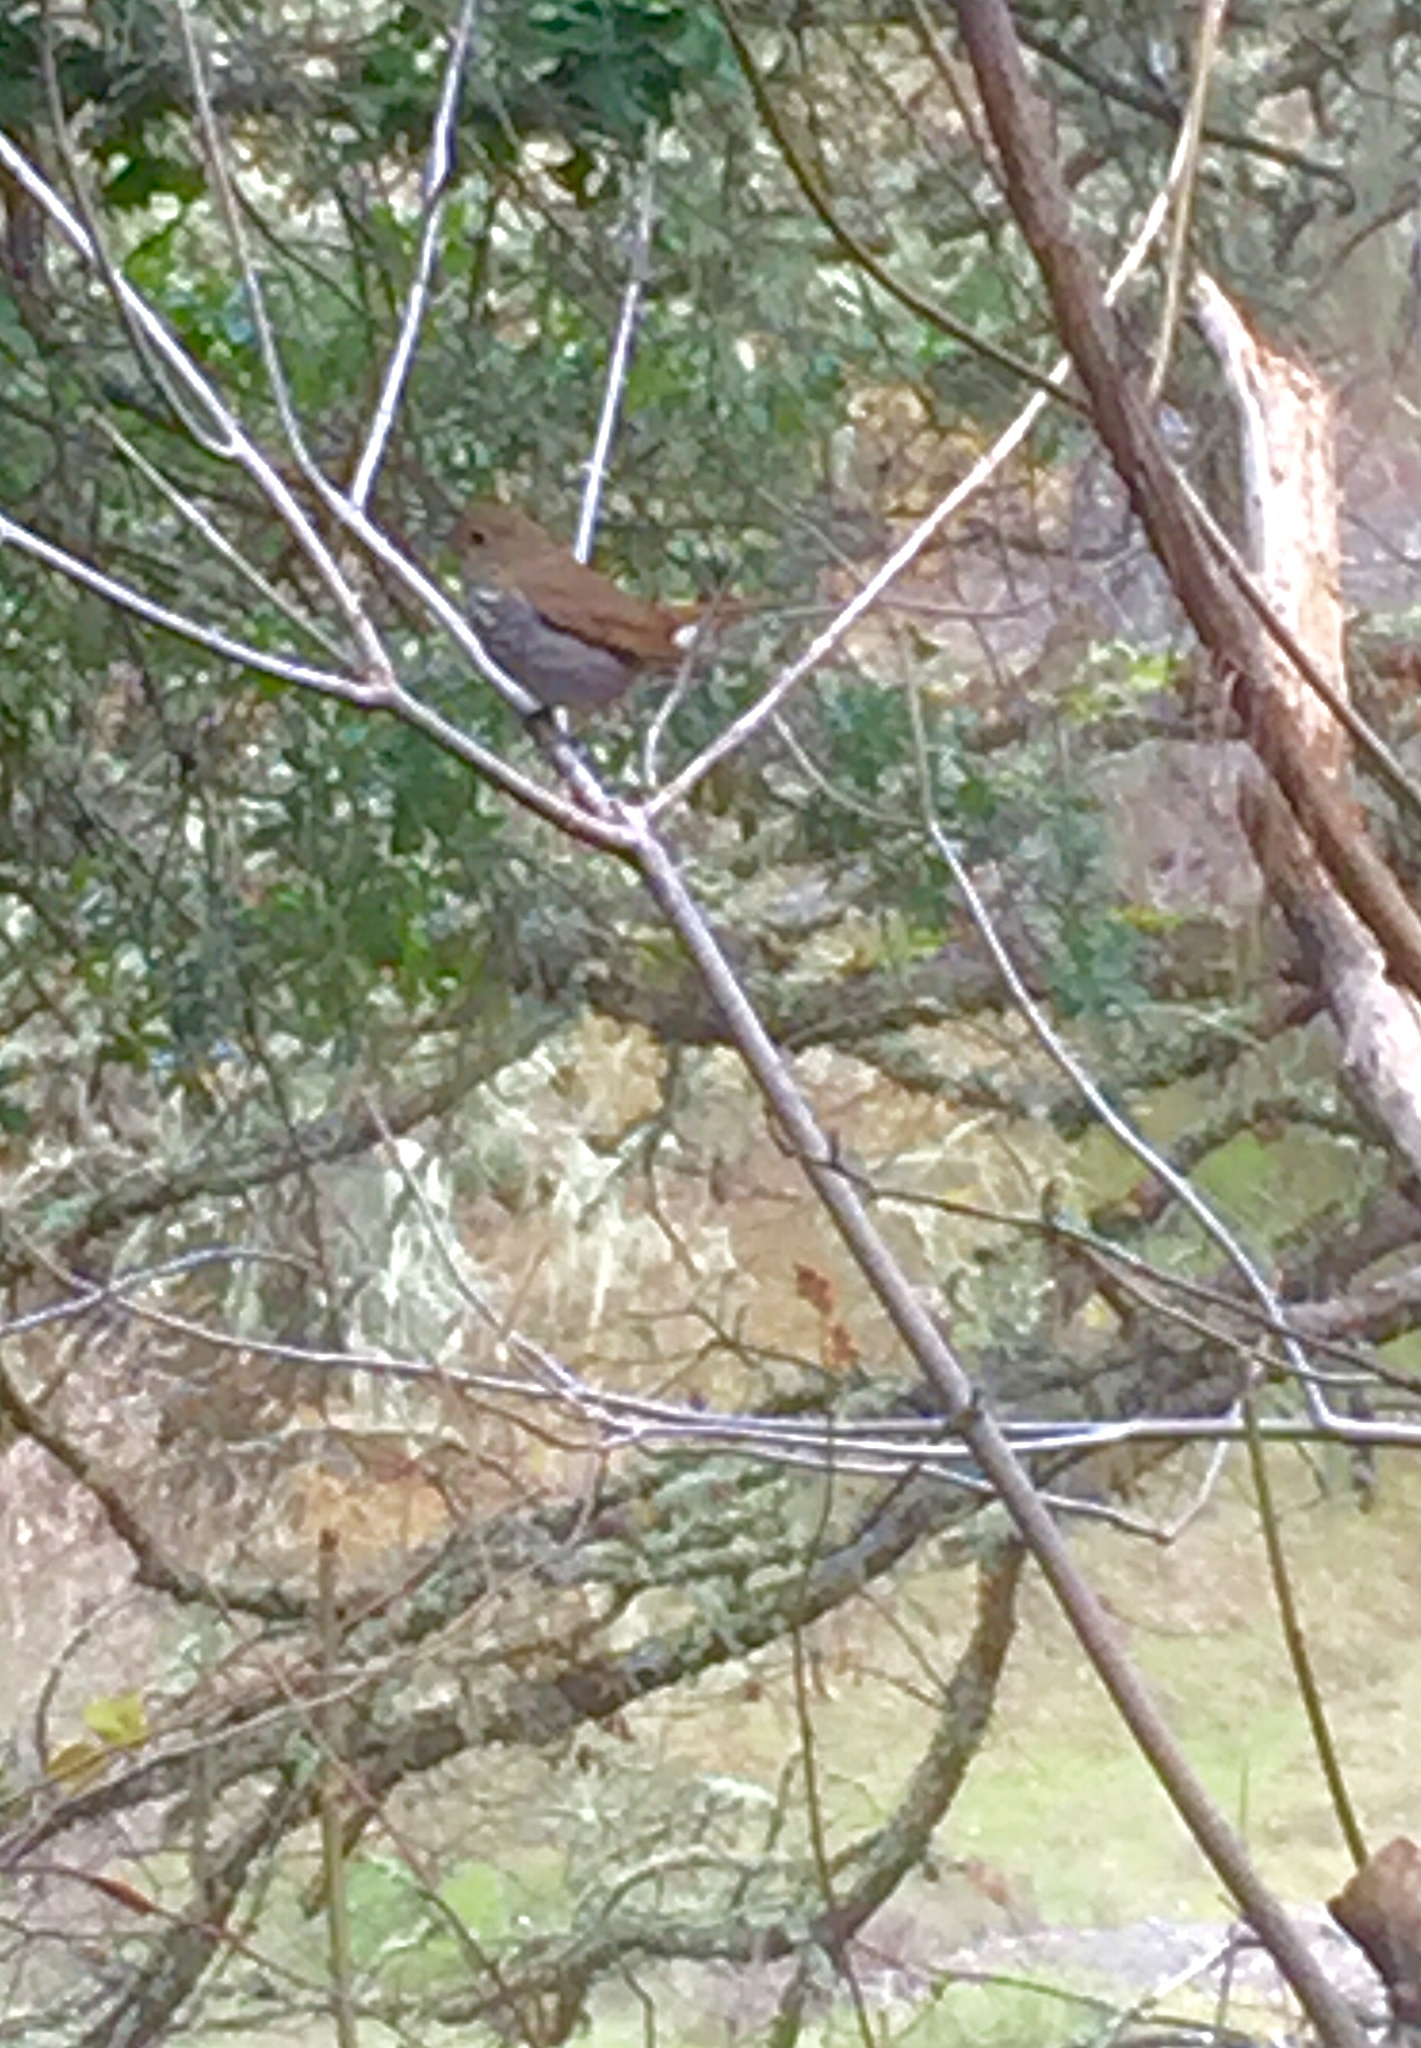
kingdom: Animalia
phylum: Chordata
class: Aves
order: Passeriformes
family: Turdidae
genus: Catharus
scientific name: Catharus guttatus
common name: Hermit thrush
